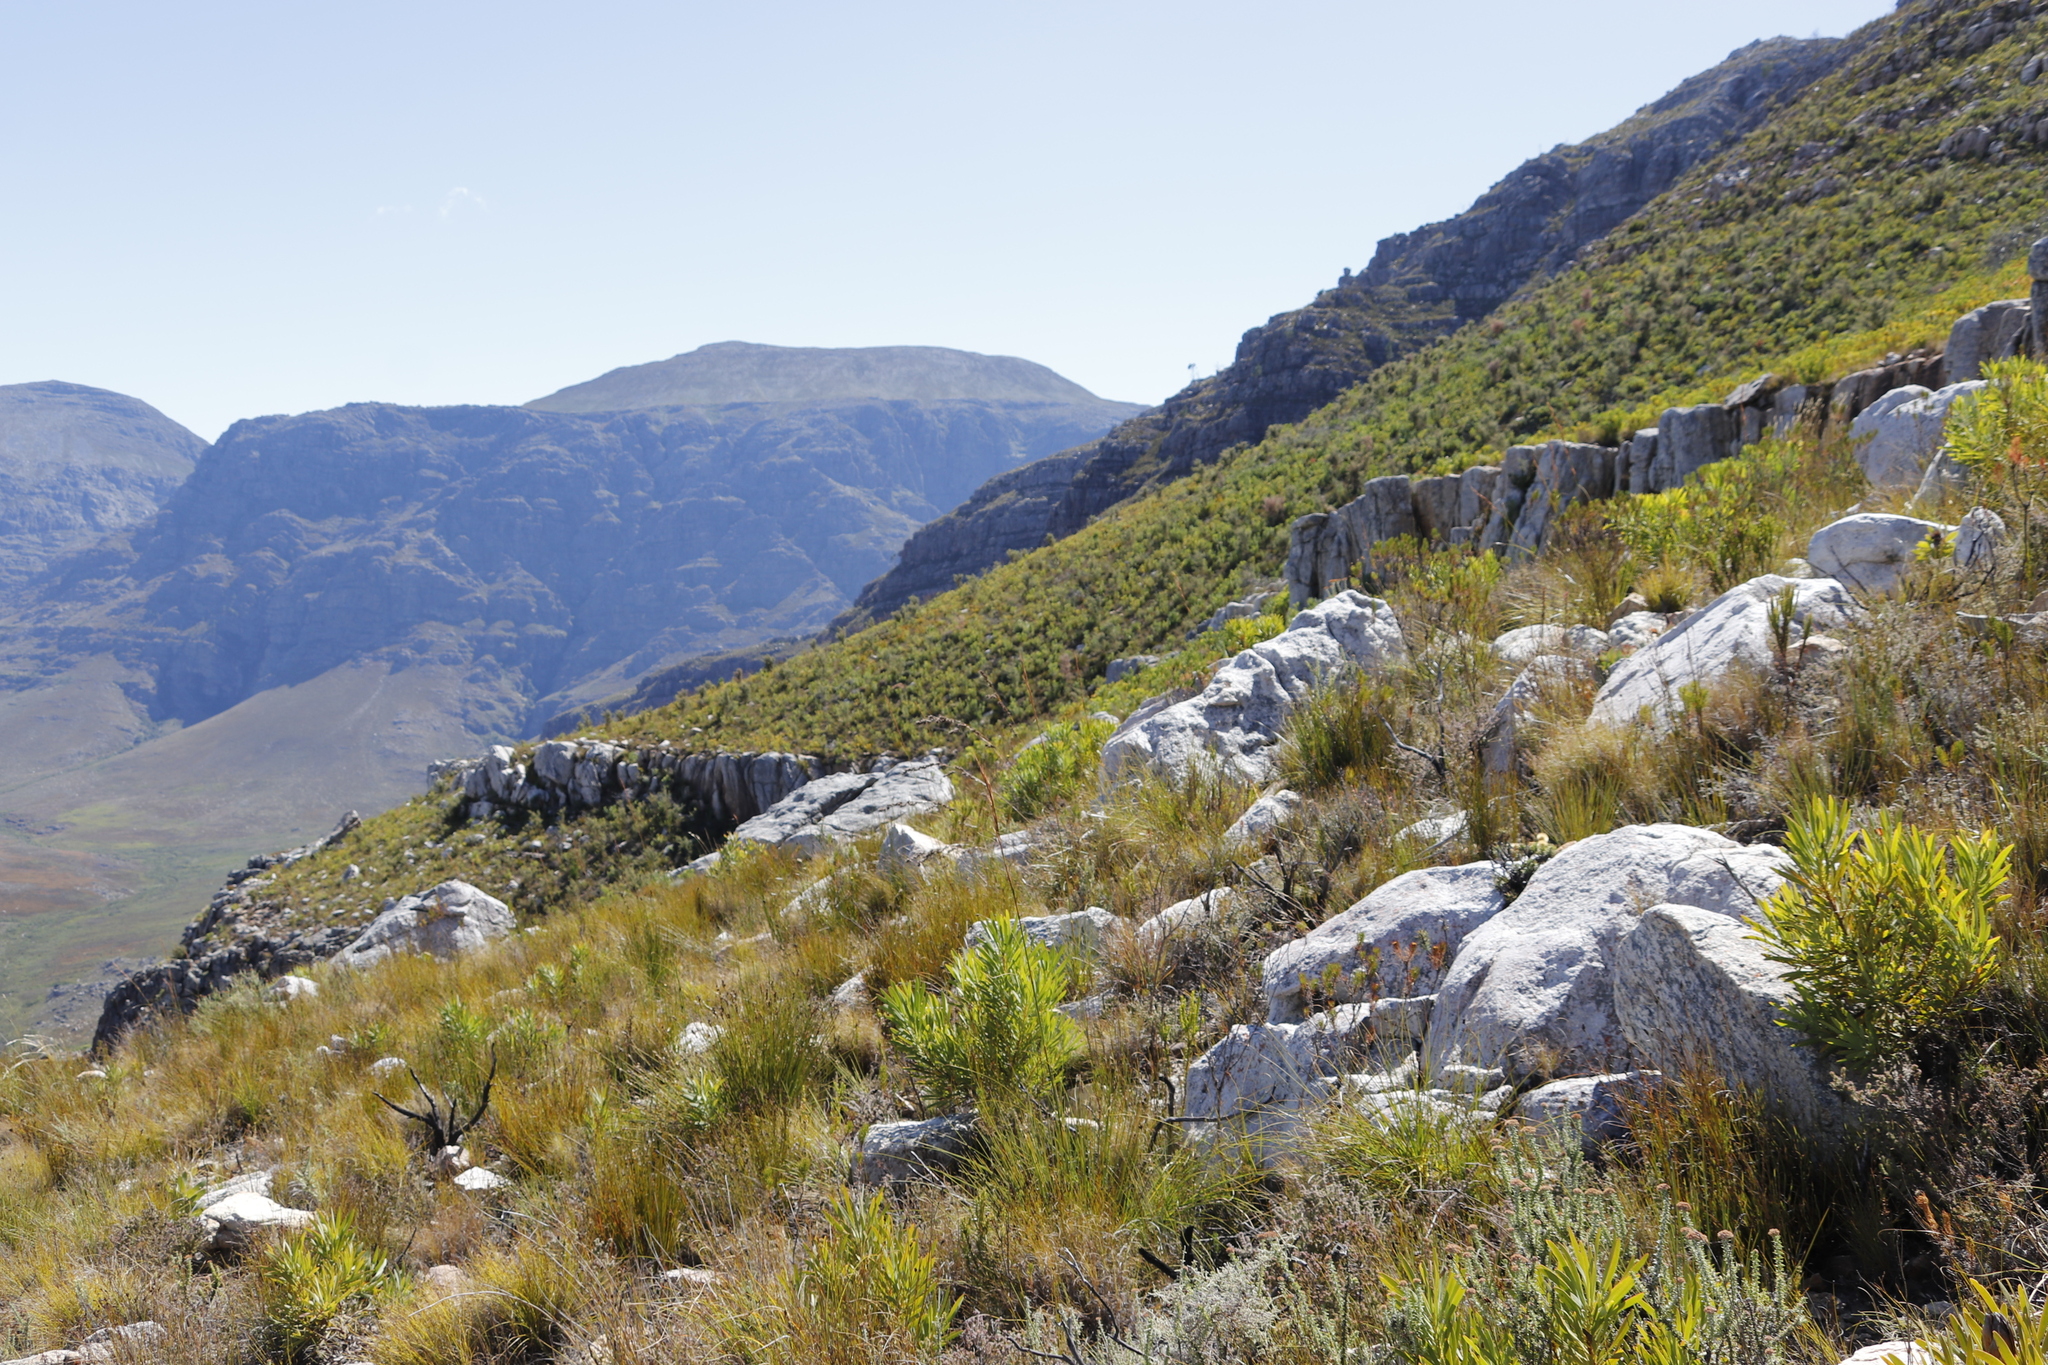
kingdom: Plantae
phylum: Tracheophyta
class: Magnoliopsida
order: Proteales
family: Proteaceae
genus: Protea
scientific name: Protea repens
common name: Sugarbush
